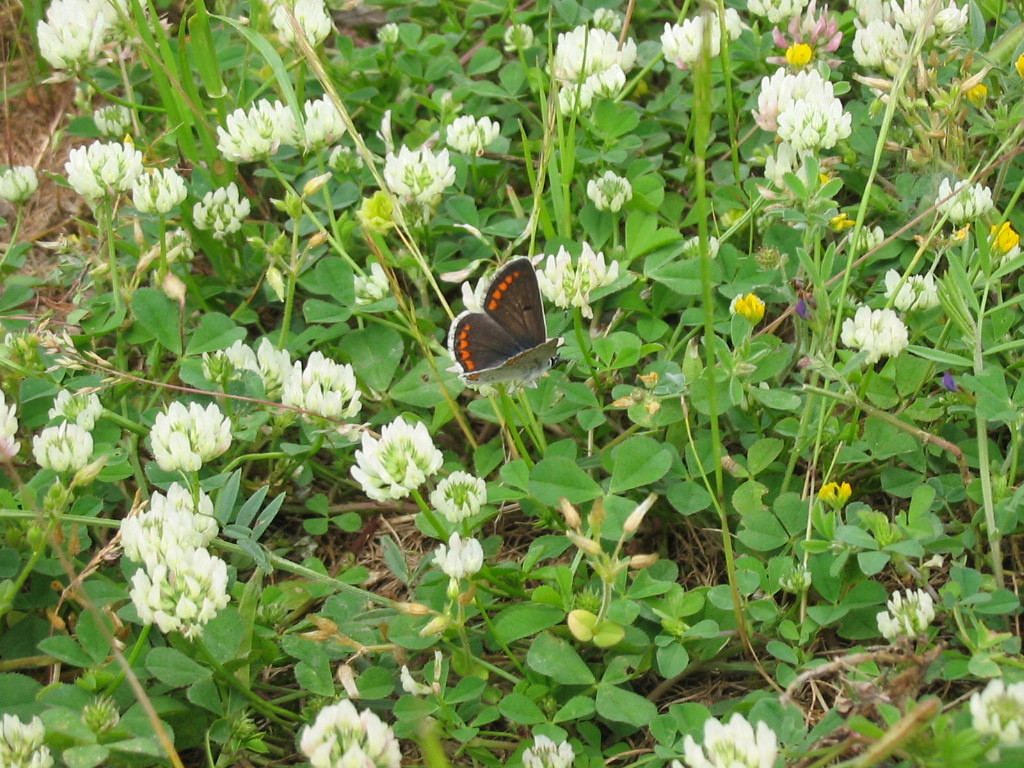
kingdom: Animalia
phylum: Arthropoda
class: Insecta
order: Lepidoptera
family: Lycaenidae
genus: Aricia
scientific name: Aricia agestis
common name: Brown argus
